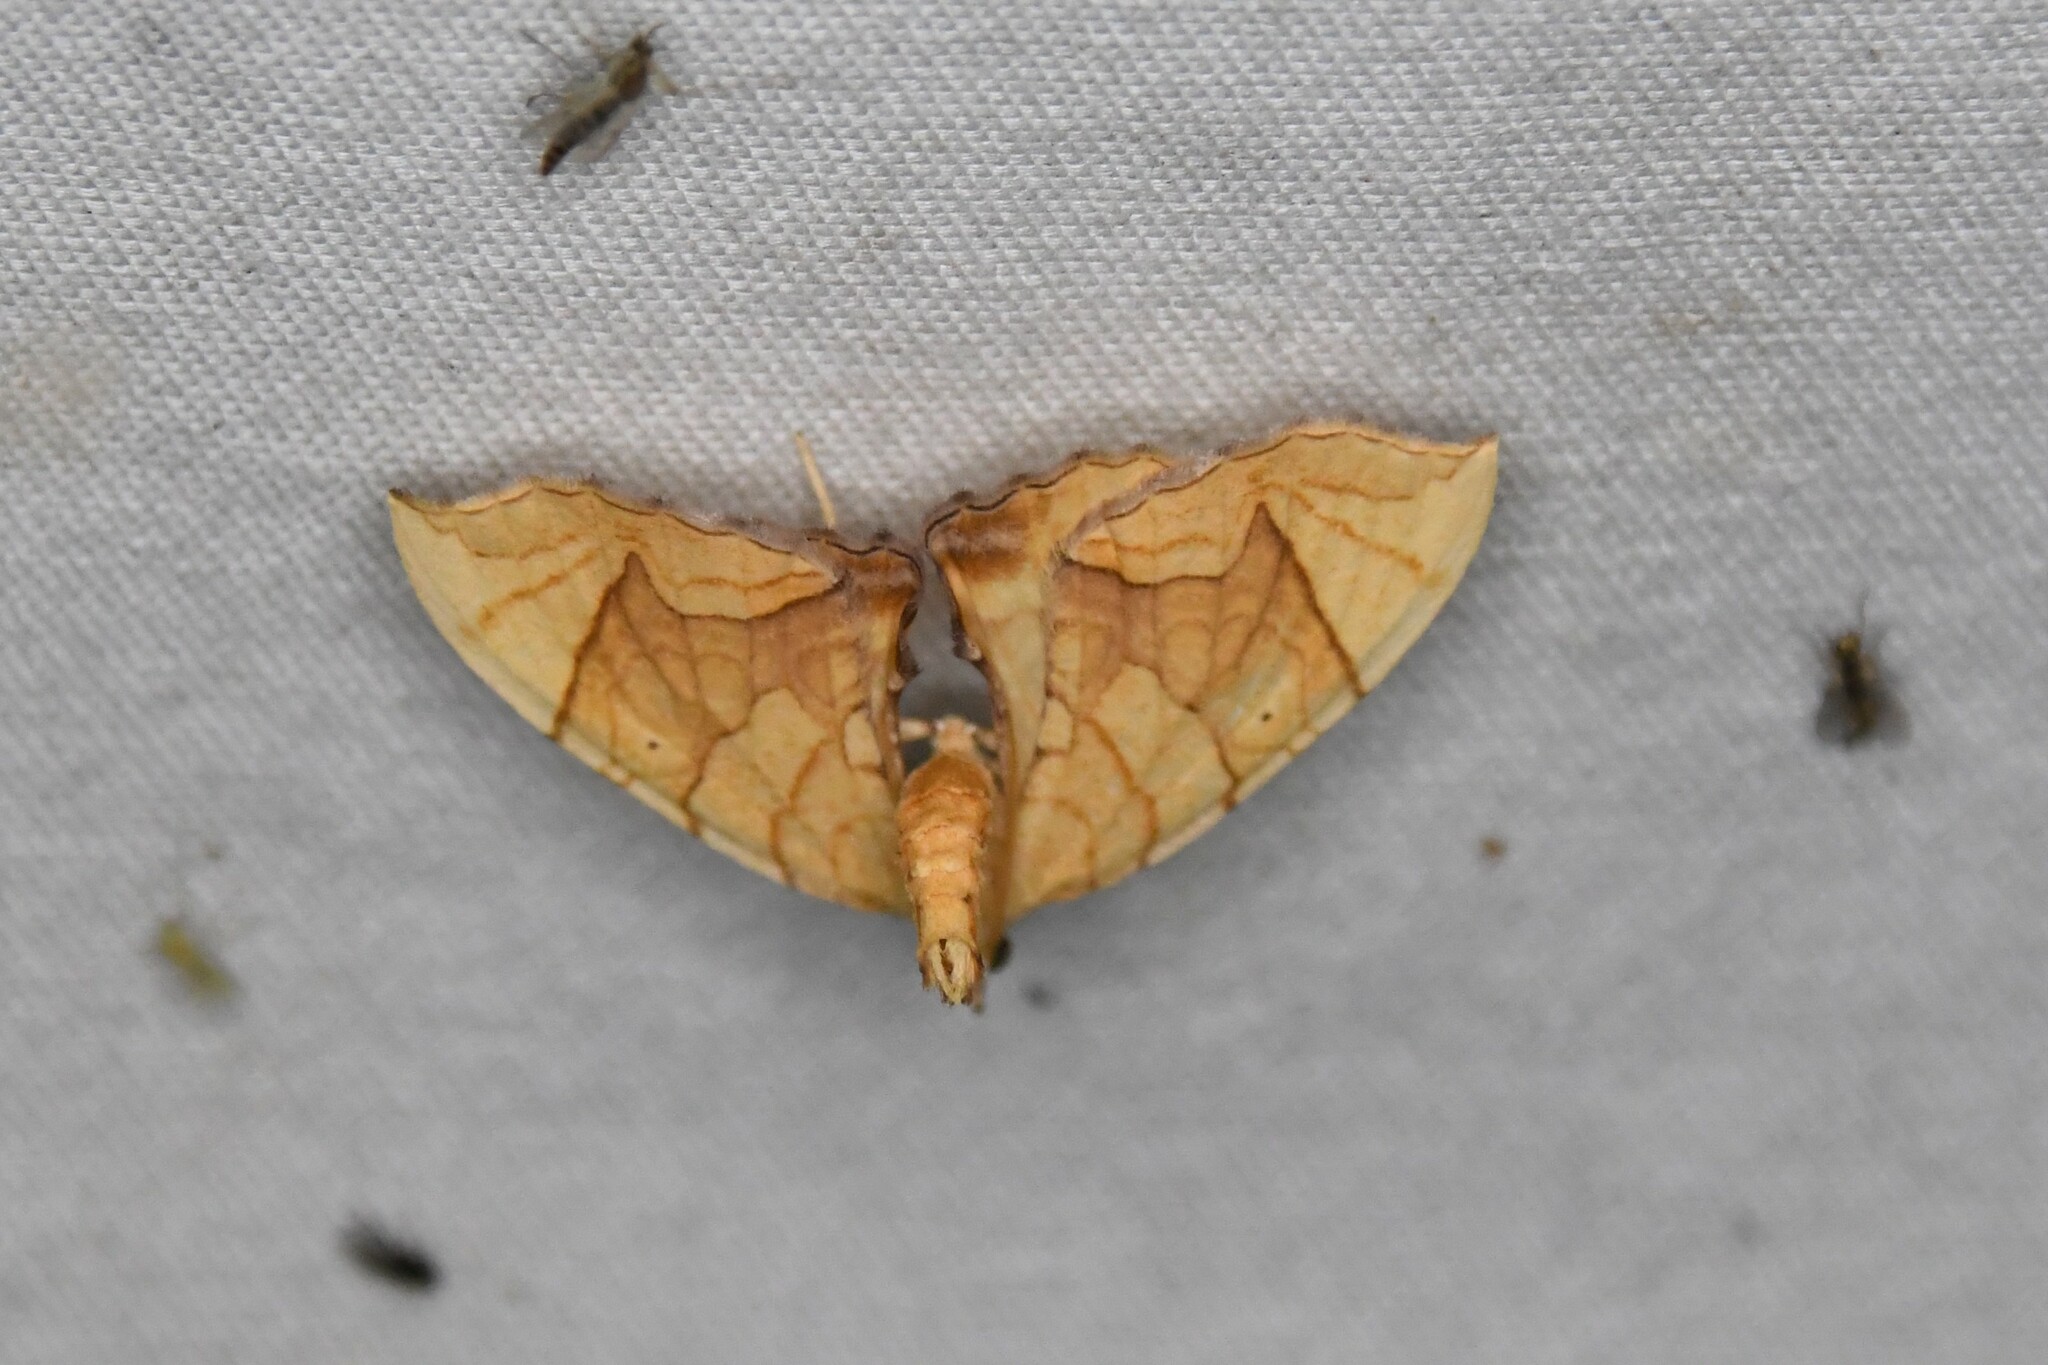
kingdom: Animalia
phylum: Arthropoda
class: Insecta
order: Lepidoptera
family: Geometridae
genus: Eulithis
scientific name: Eulithis
